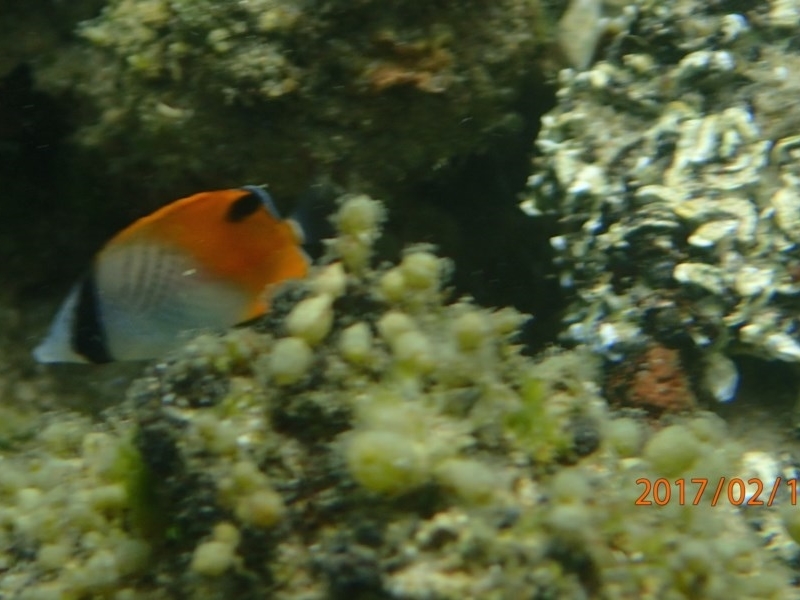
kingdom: Animalia
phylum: Chordata
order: Perciformes
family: Chaetodontidae
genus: Chaetodon
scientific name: Chaetodon auriga
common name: Threadfin butterflyfish
